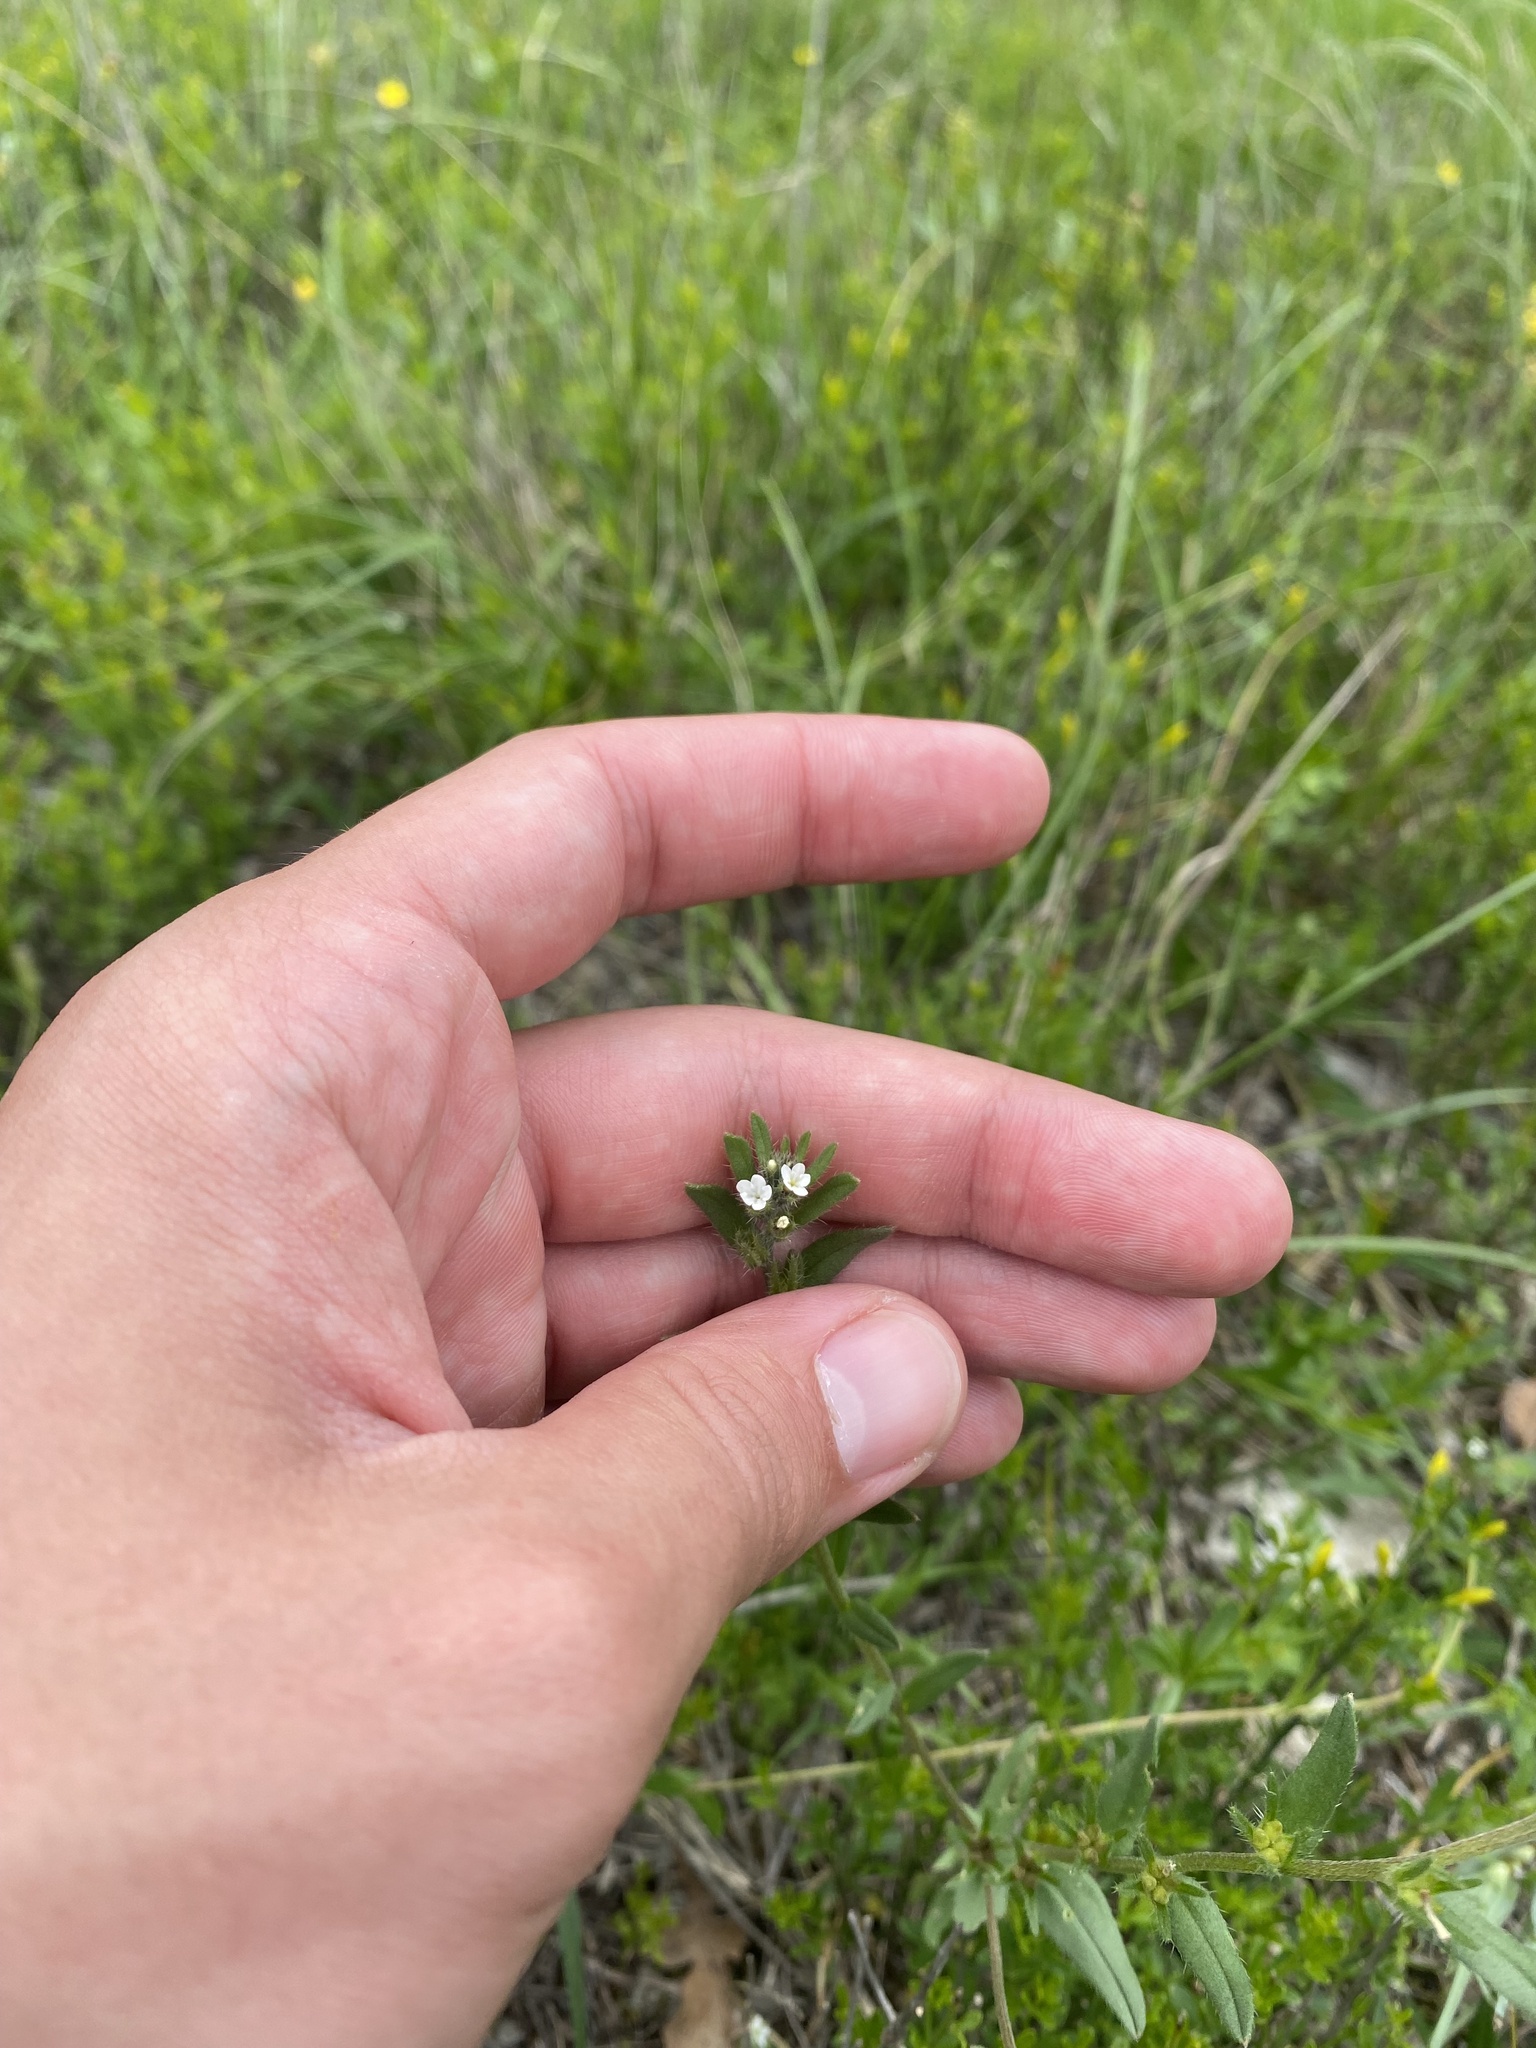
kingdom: Plantae
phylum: Tracheophyta
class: Magnoliopsida
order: Boraginales
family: Boraginaceae
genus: Buglossoides
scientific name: Buglossoides arvensis
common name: Corn gromwell
